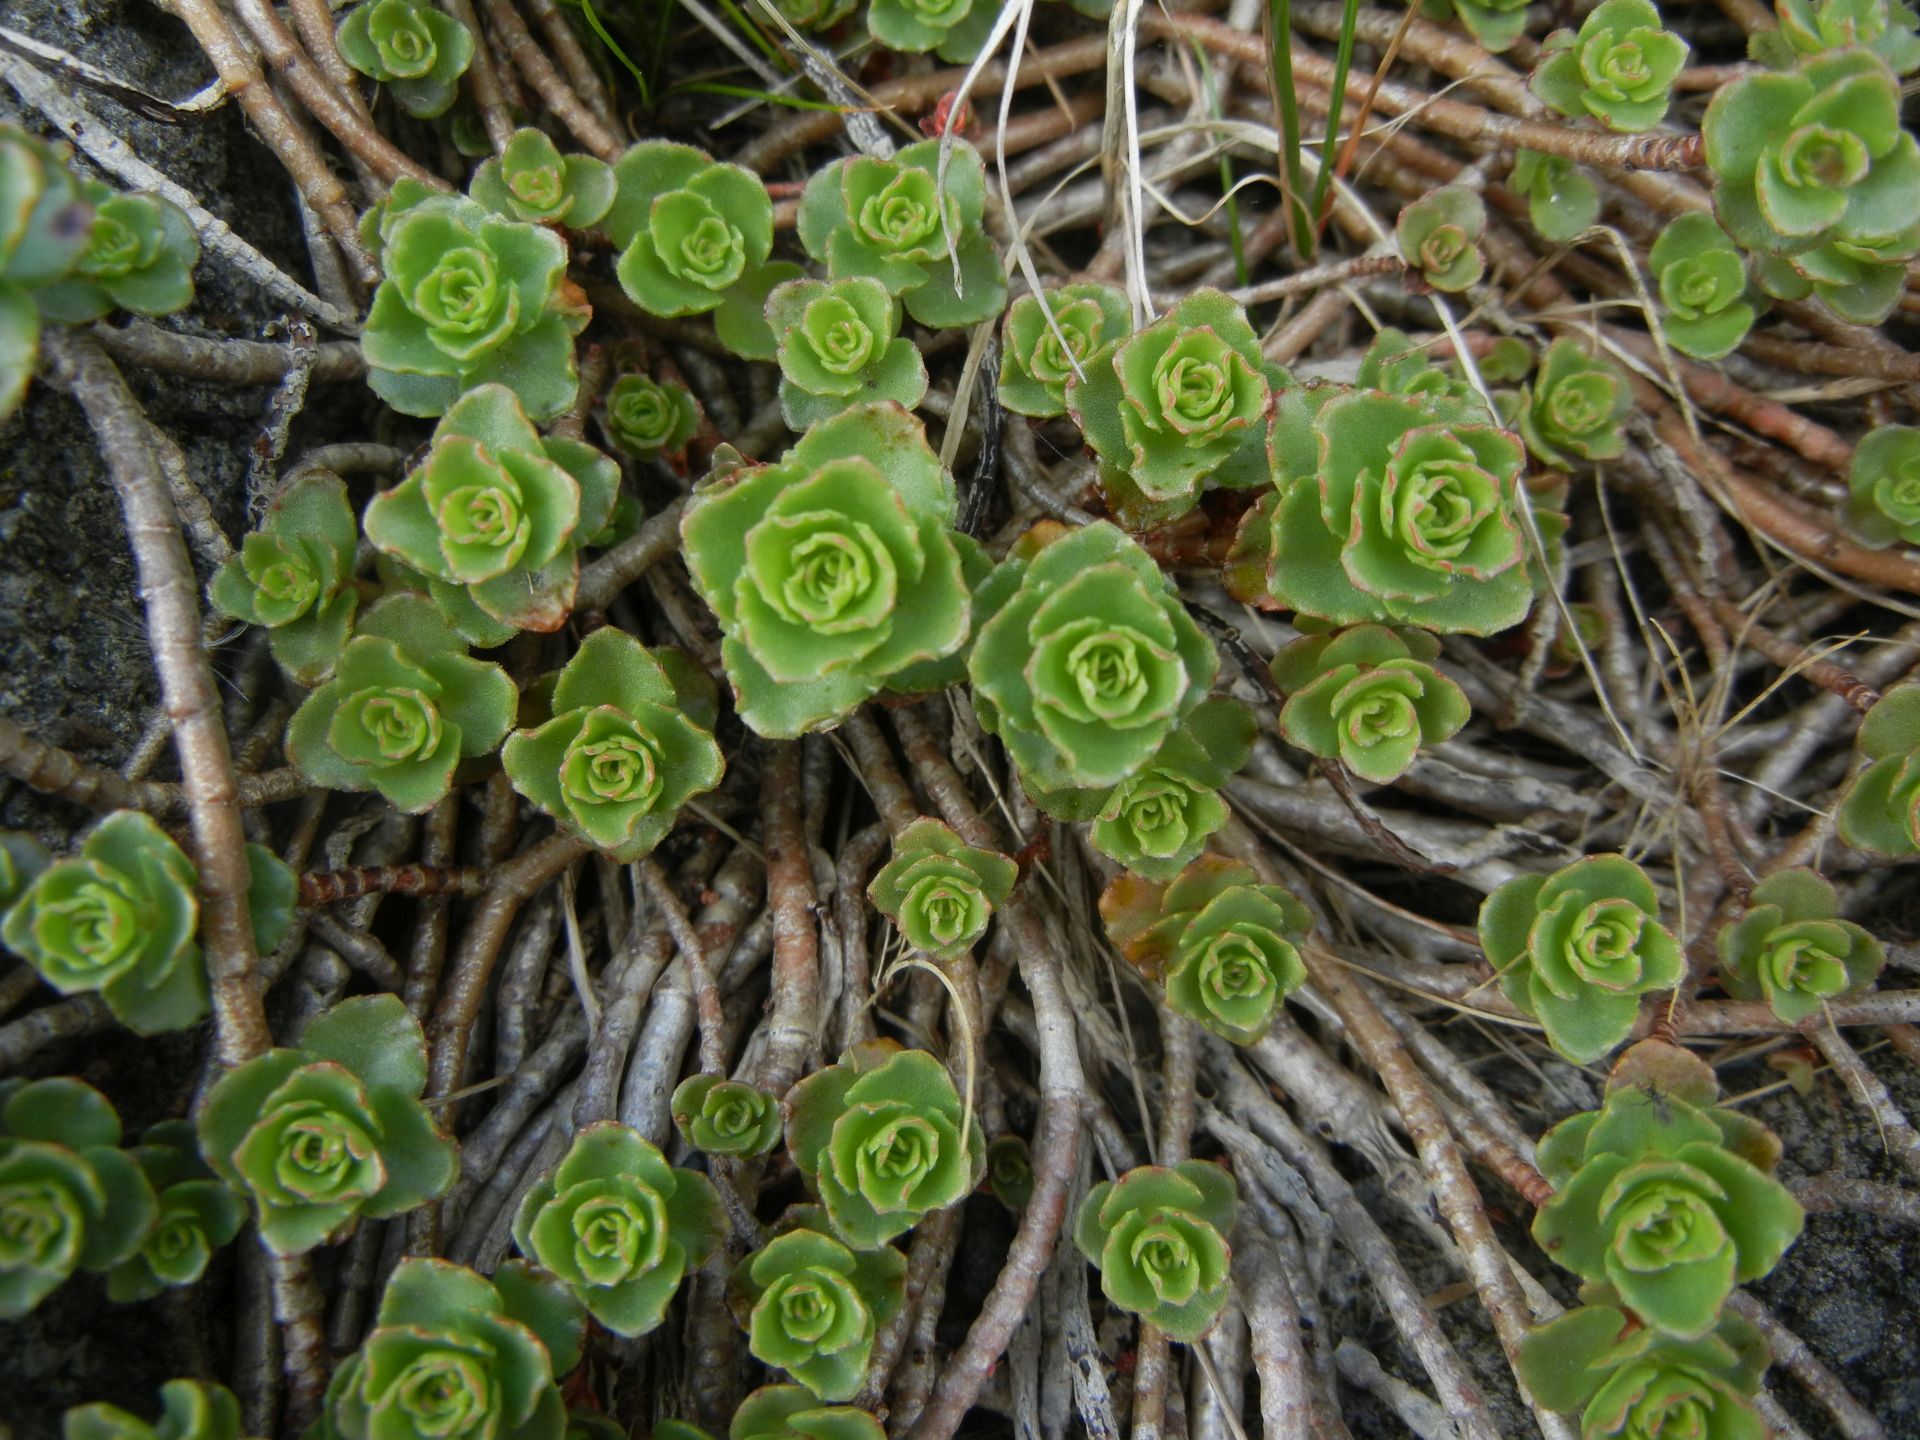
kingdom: Plantae
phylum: Tracheophyta
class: Magnoliopsida
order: Saxifragales
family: Crassulaceae
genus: Phedimus
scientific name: Phedimus spurius
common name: Caucasian stonecrop
